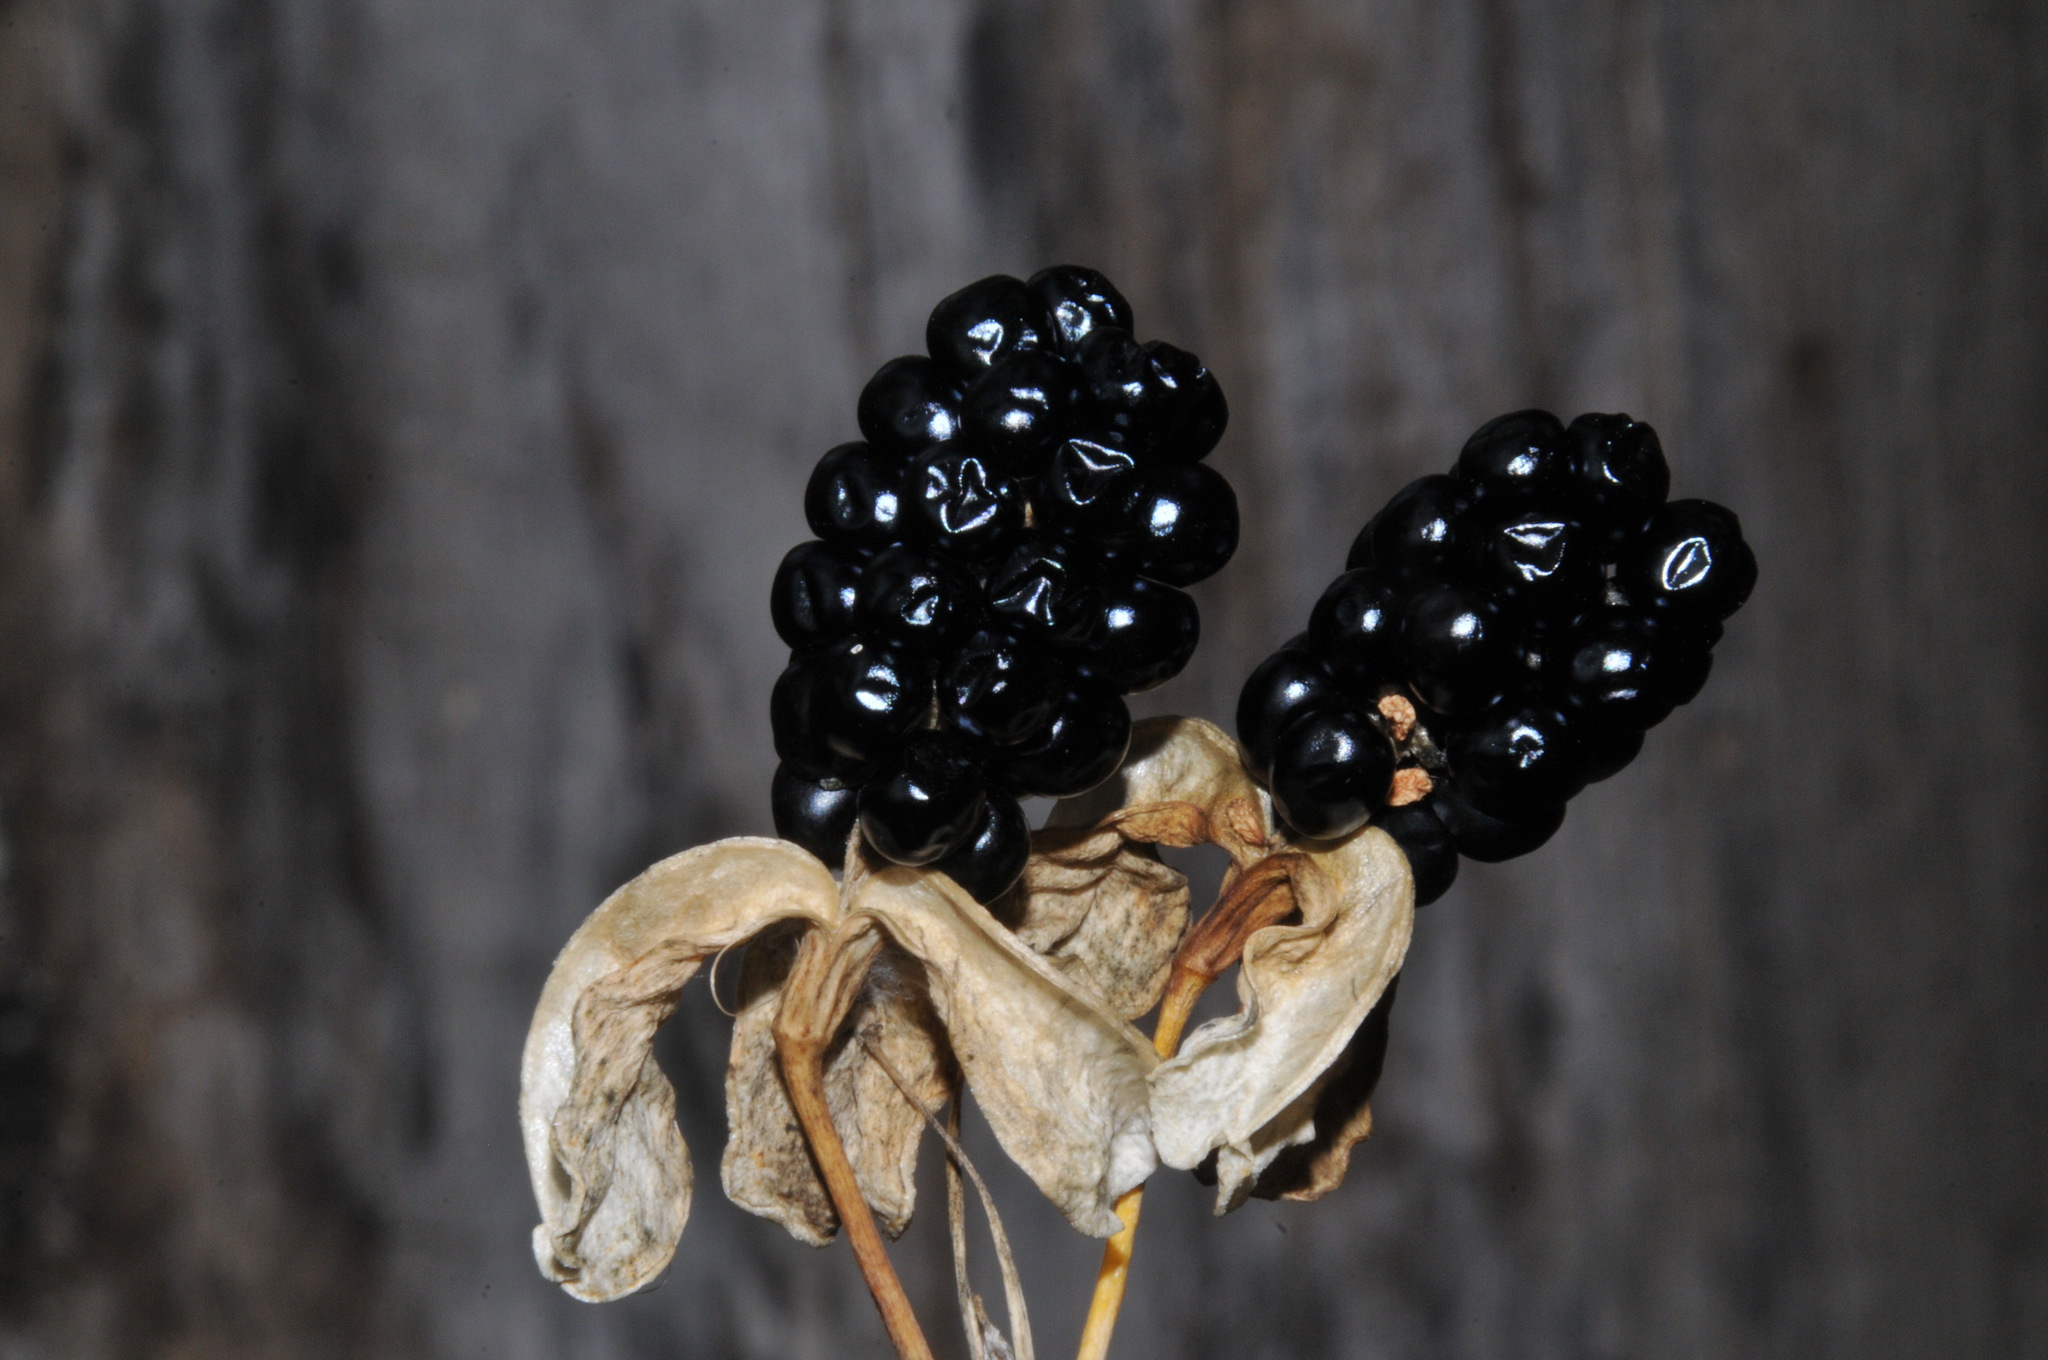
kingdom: Plantae
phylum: Tracheophyta
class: Liliopsida
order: Asparagales
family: Iridaceae
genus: Iris
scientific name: Iris domestica
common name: Belamcanda
